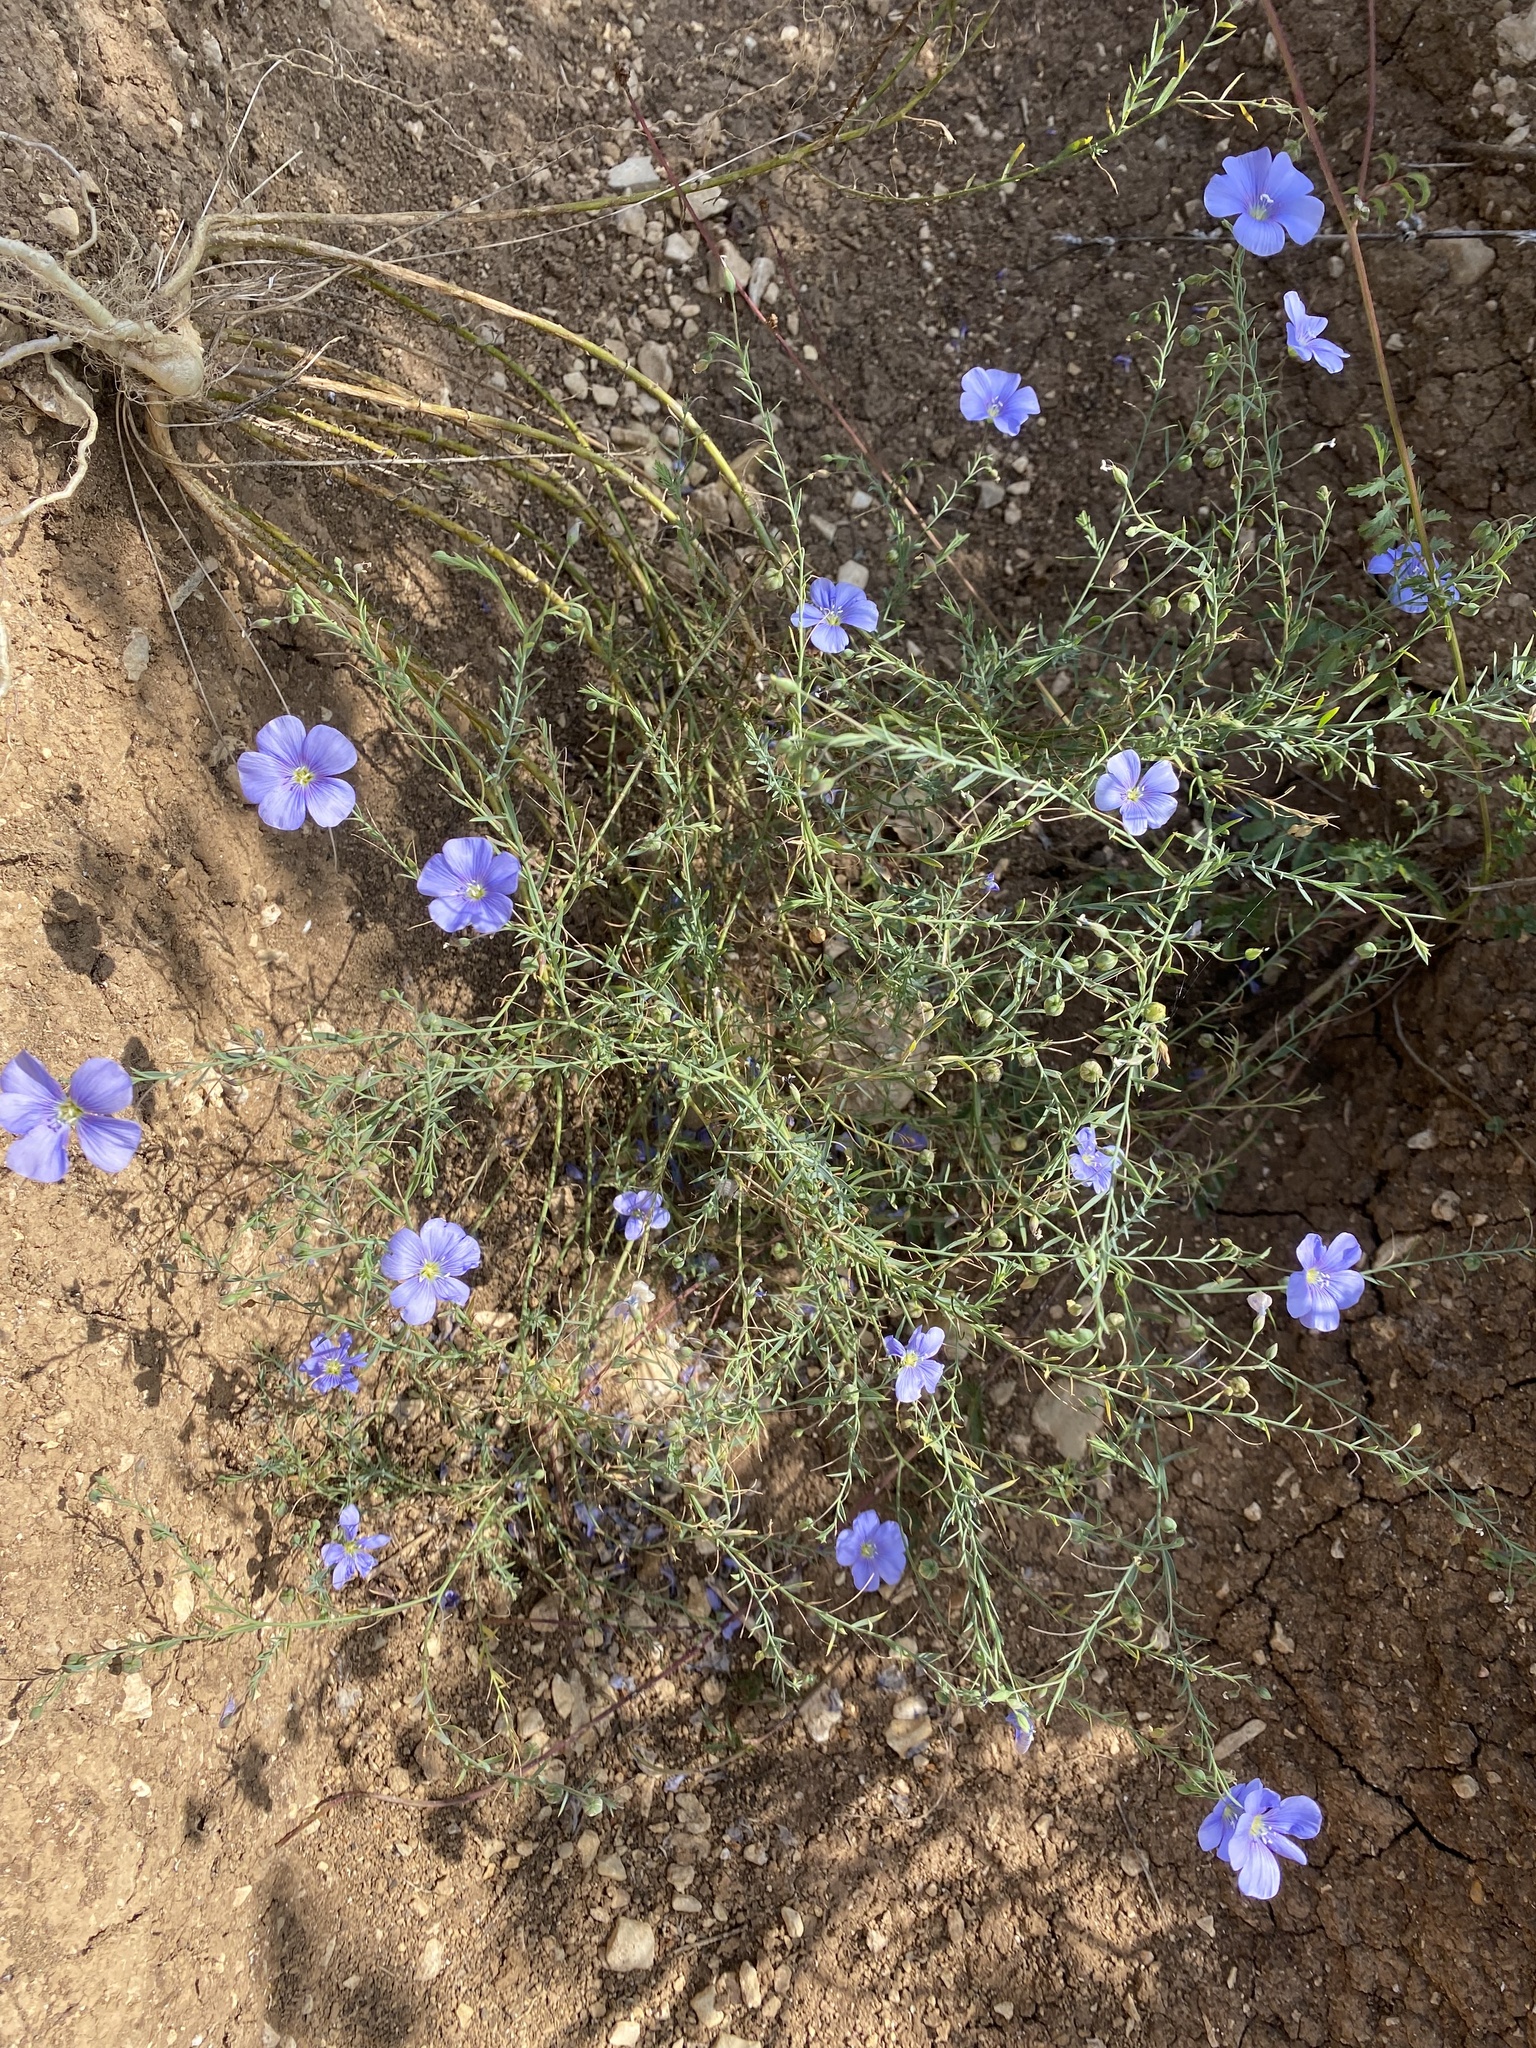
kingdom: Plantae
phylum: Tracheophyta
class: Magnoliopsida
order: Malpighiales
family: Linaceae
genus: Linum
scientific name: Linum austriacum
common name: Austrian flax
